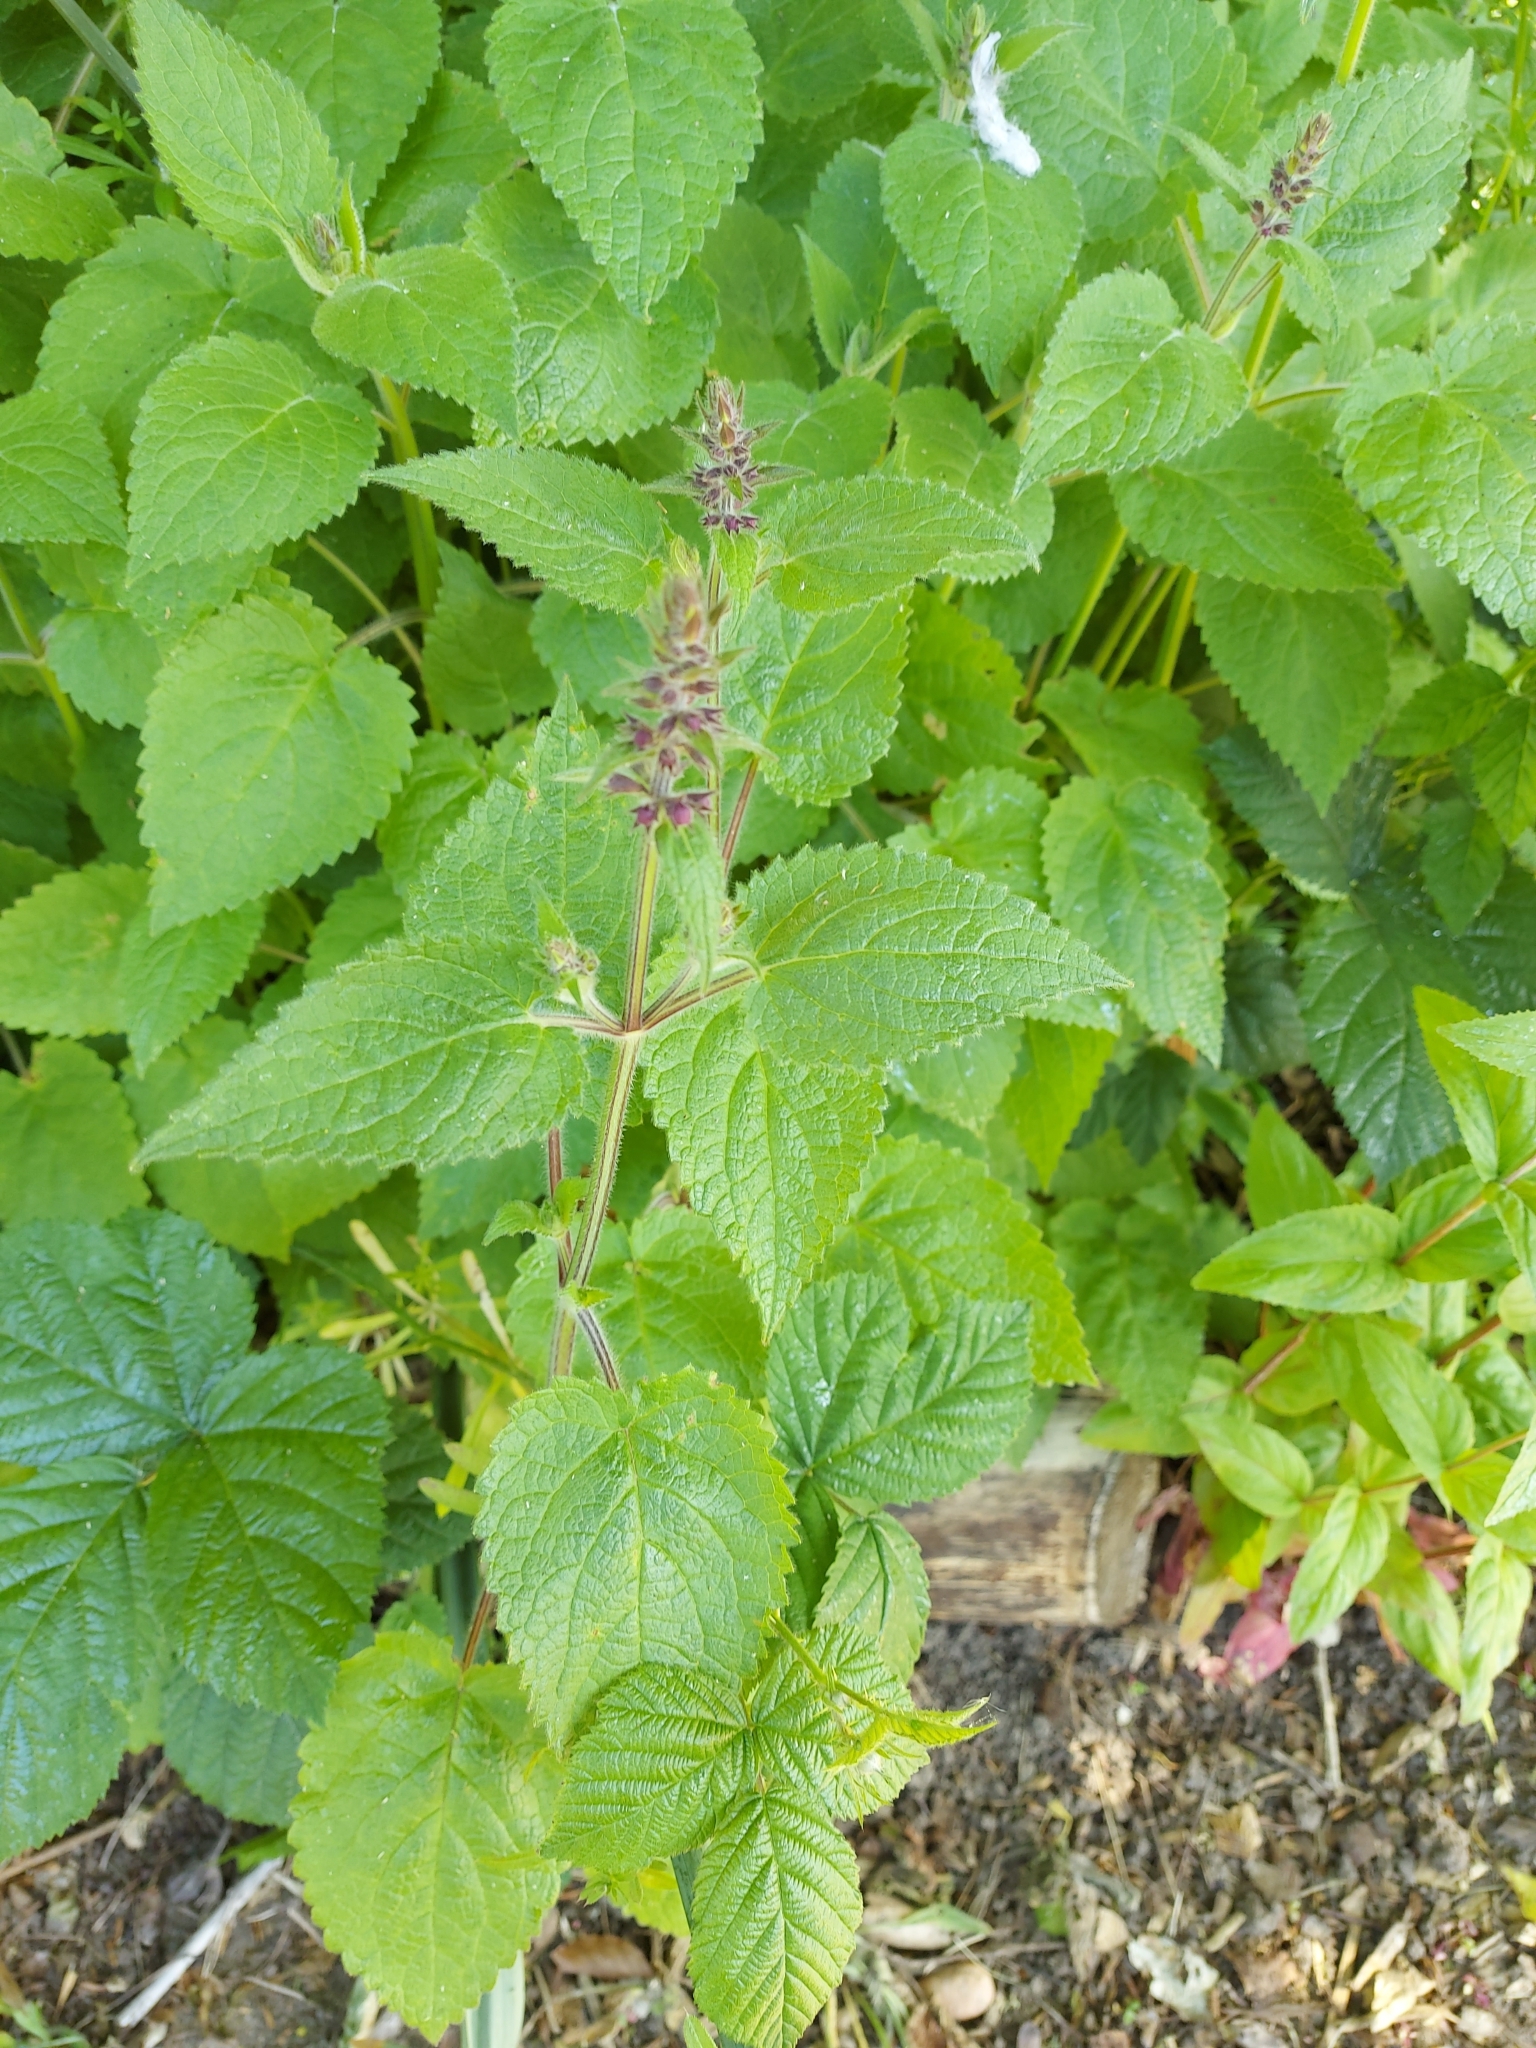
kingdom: Plantae
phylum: Tracheophyta
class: Magnoliopsida
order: Lamiales
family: Lamiaceae
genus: Stachys
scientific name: Stachys sylvatica
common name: Hedge woundwort
